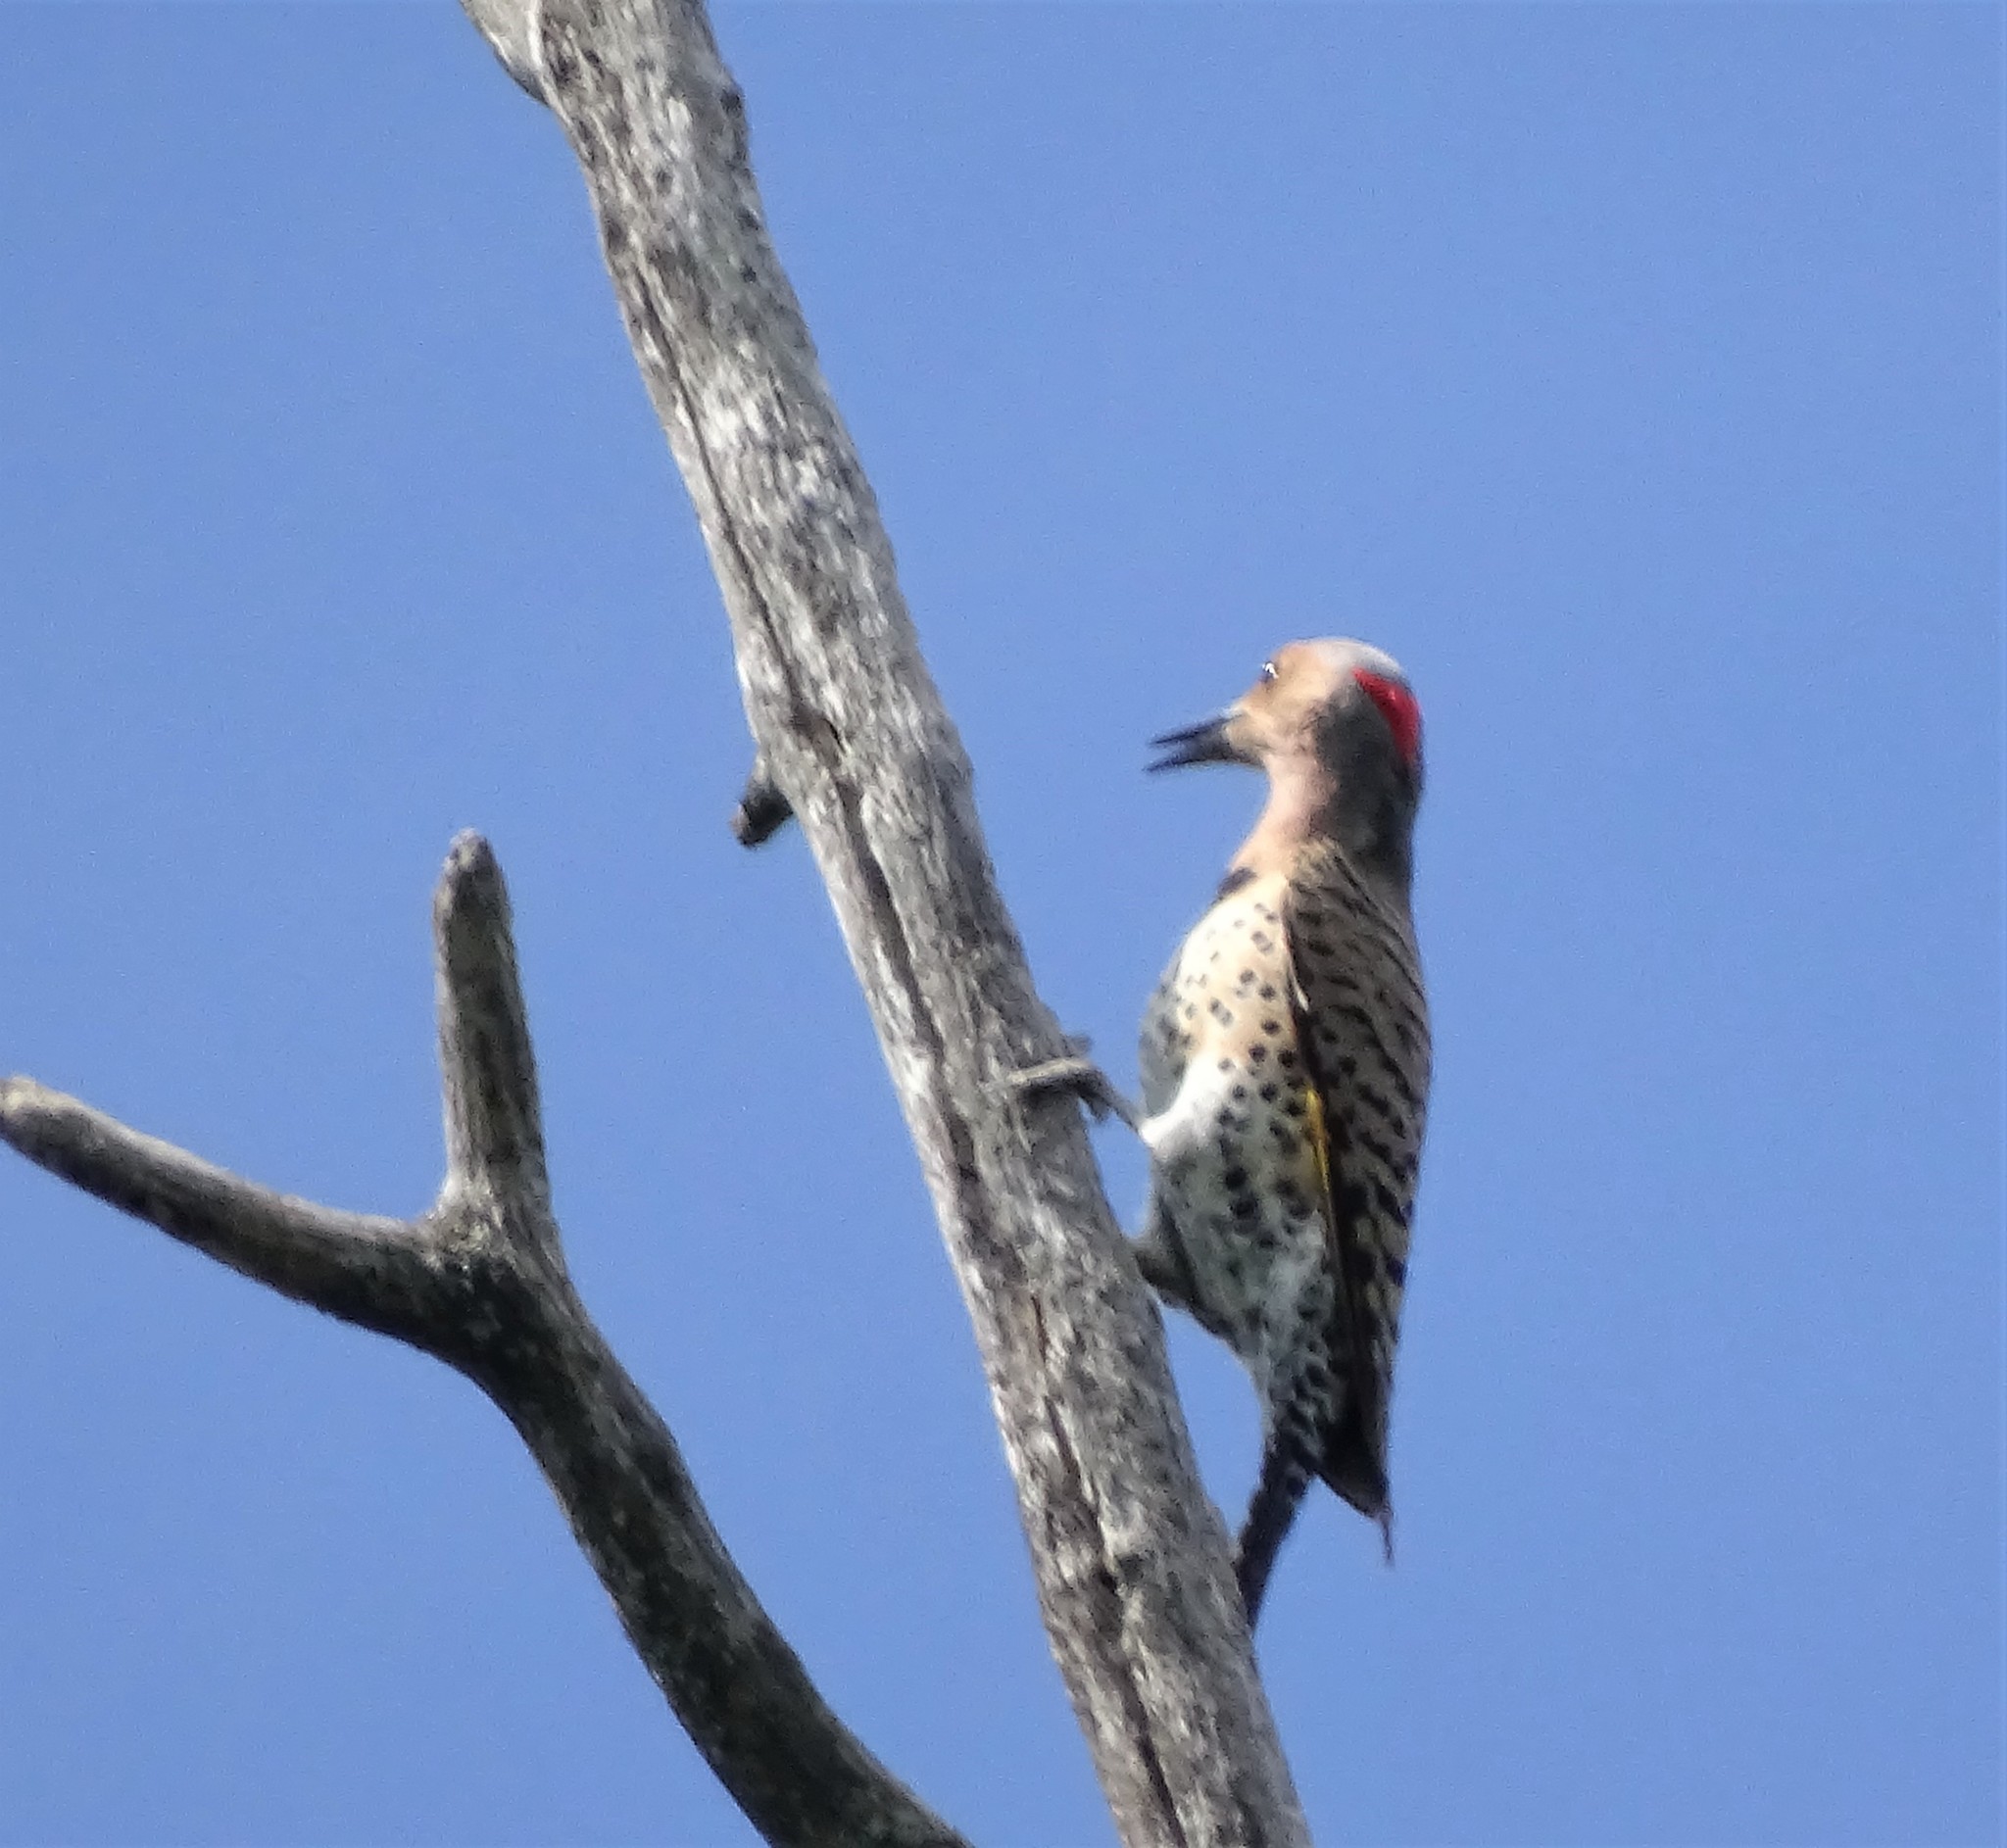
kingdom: Animalia
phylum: Chordata
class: Aves
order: Piciformes
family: Picidae
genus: Colaptes
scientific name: Colaptes auratus
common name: Northern flicker
